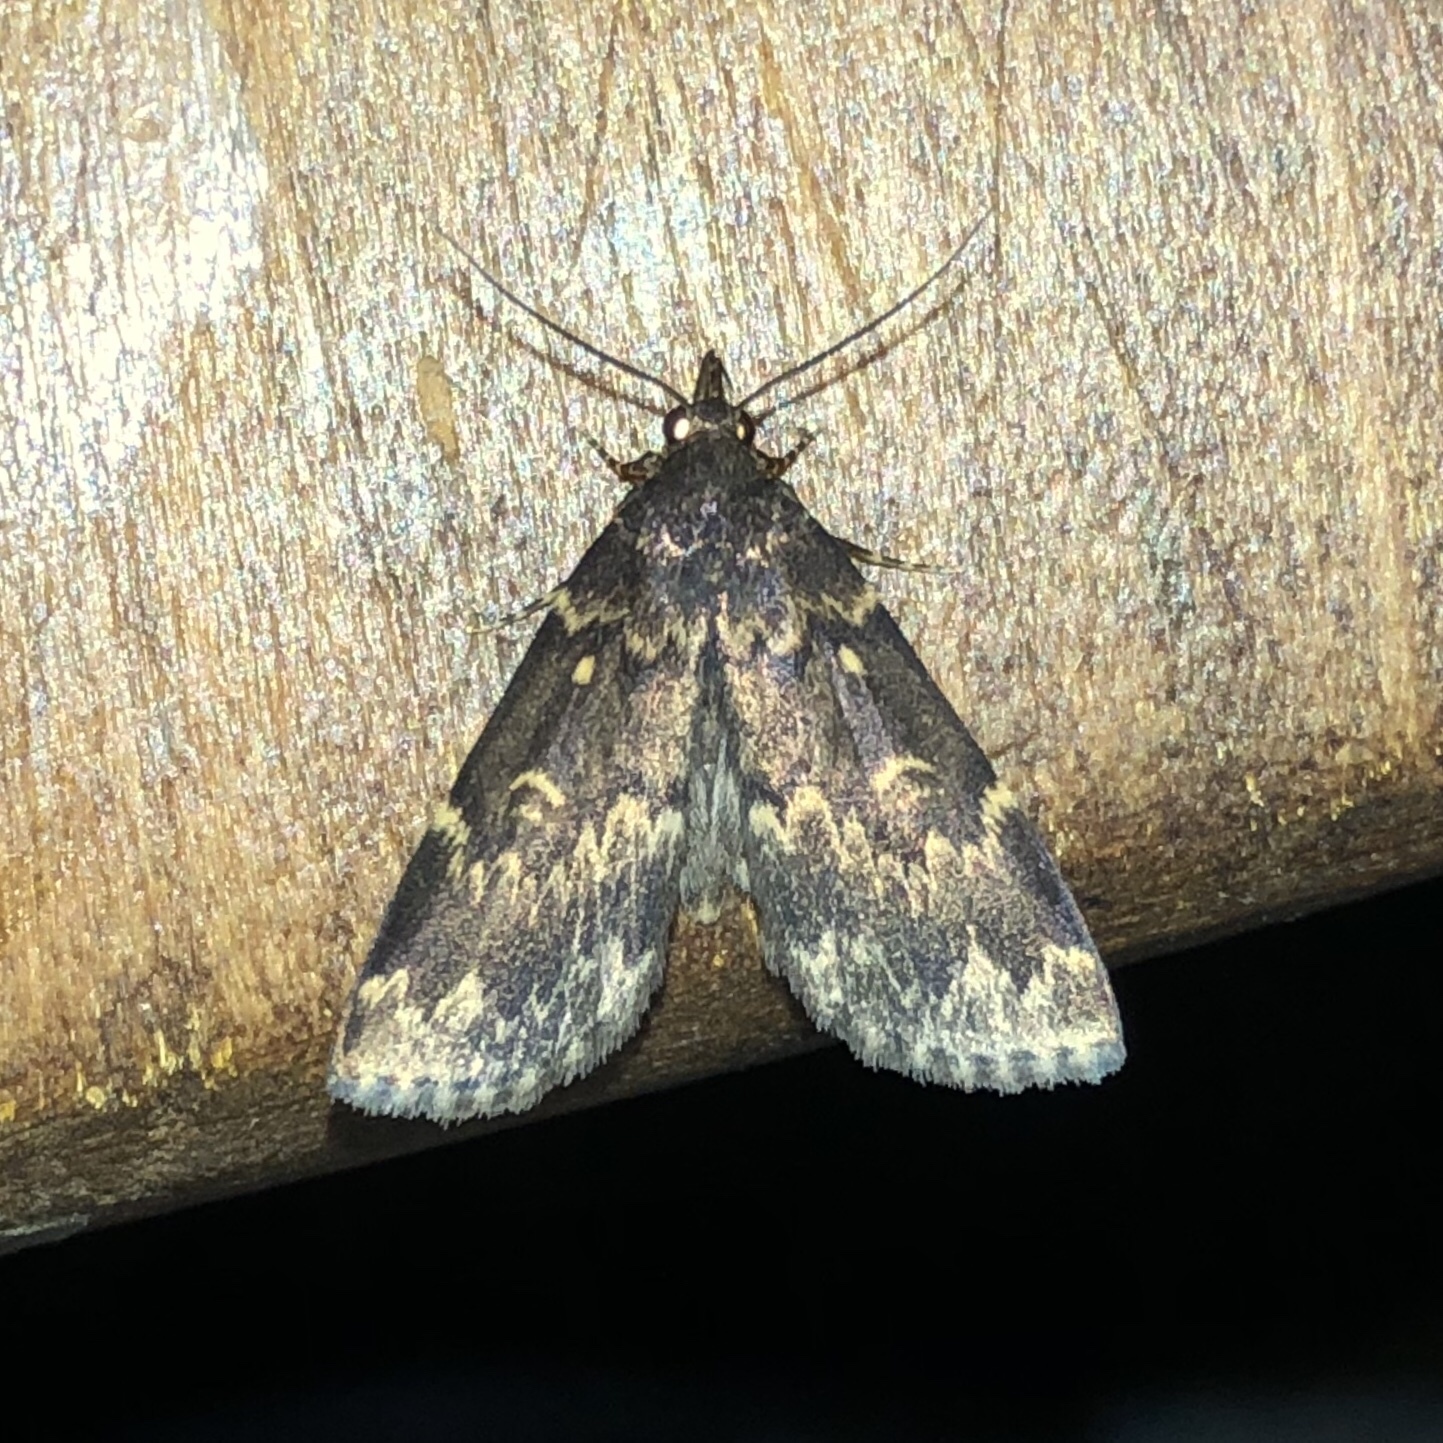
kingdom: Animalia
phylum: Arthropoda
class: Insecta
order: Lepidoptera
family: Erebidae
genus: Idia
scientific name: Idia lubricalis
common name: Twin-striped tabby
